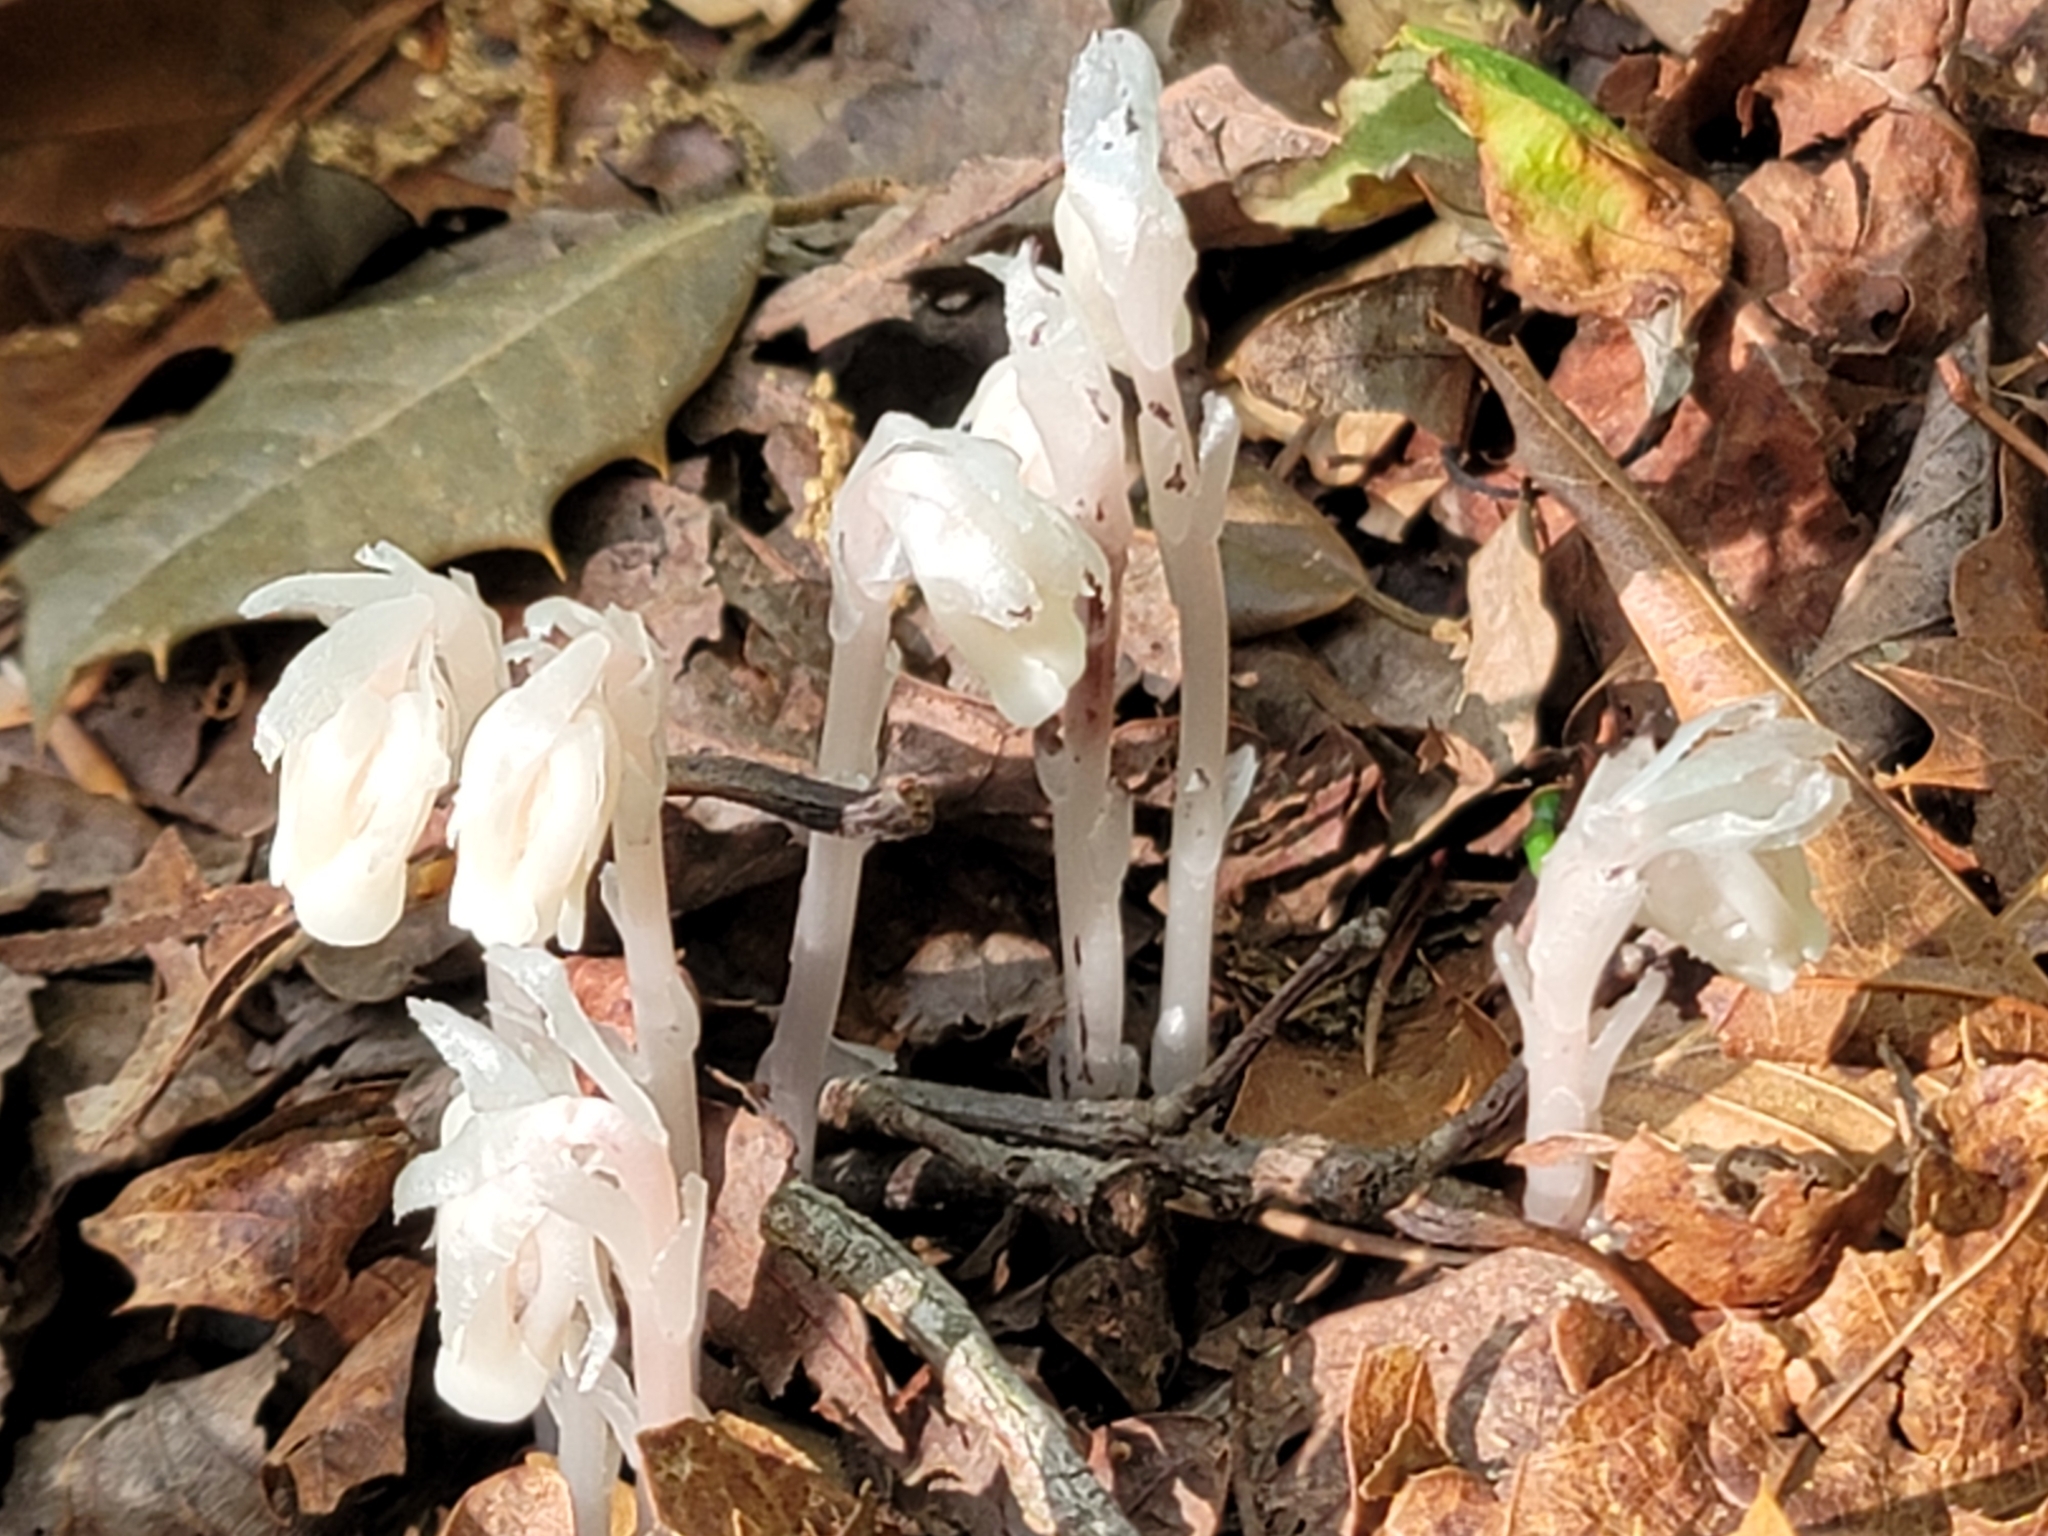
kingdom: Plantae
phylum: Tracheophyta
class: Magnoliopsida
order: Ericales
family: Ericaceae
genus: Monotropa
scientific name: Monotropa uniflora
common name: Convulsion root
